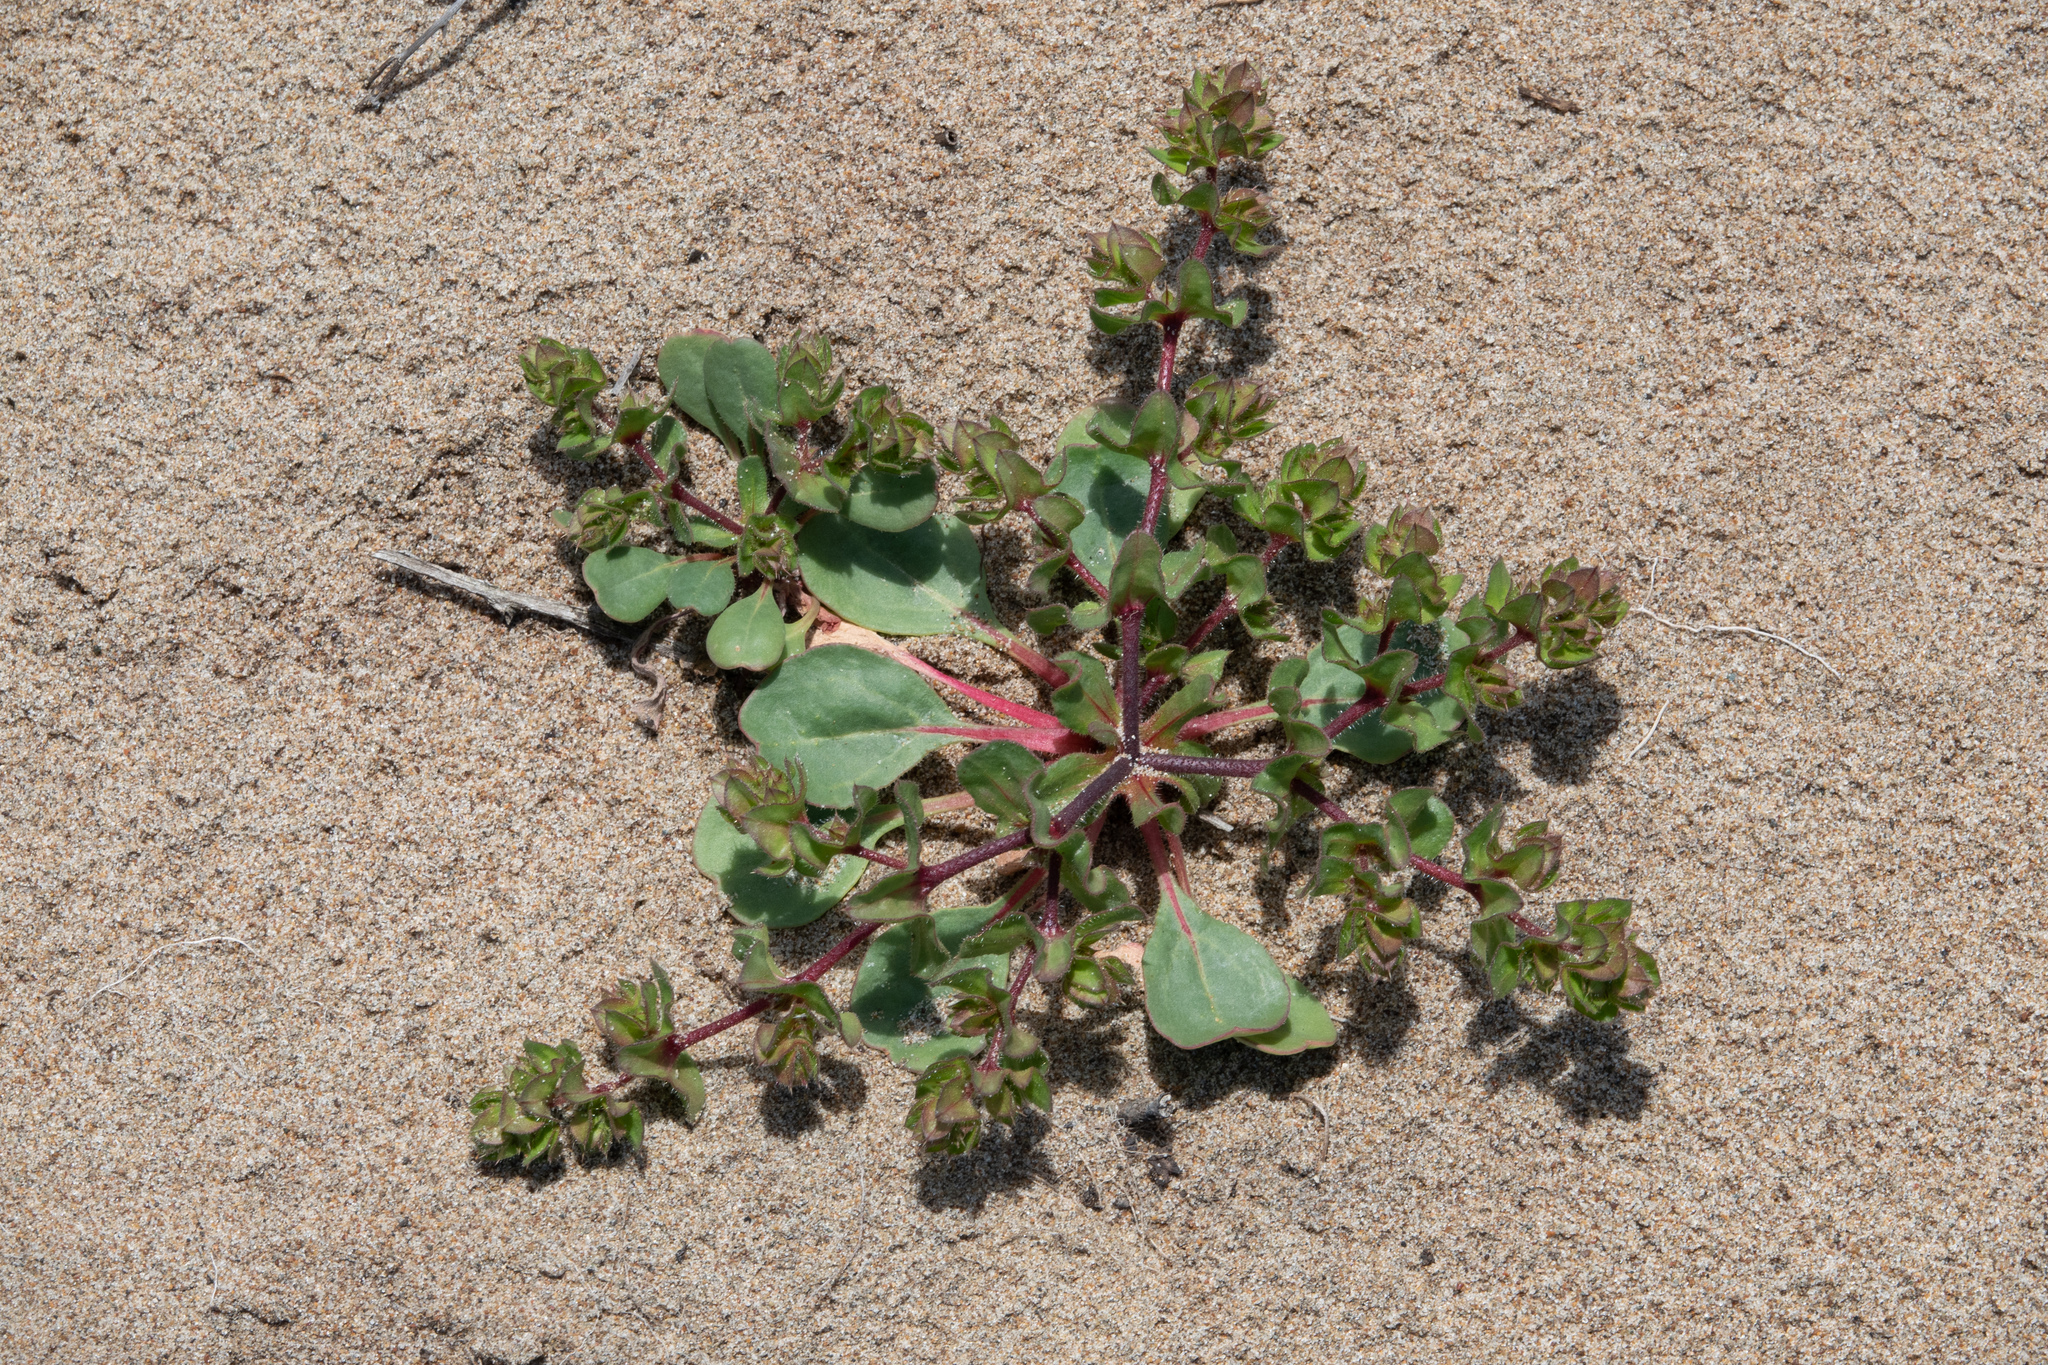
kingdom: Plantae
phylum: Tracheophyta
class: Magnoliopsida
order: Caryophyllales
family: Polygonaceae
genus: Mucronea
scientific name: Mucronea californica
